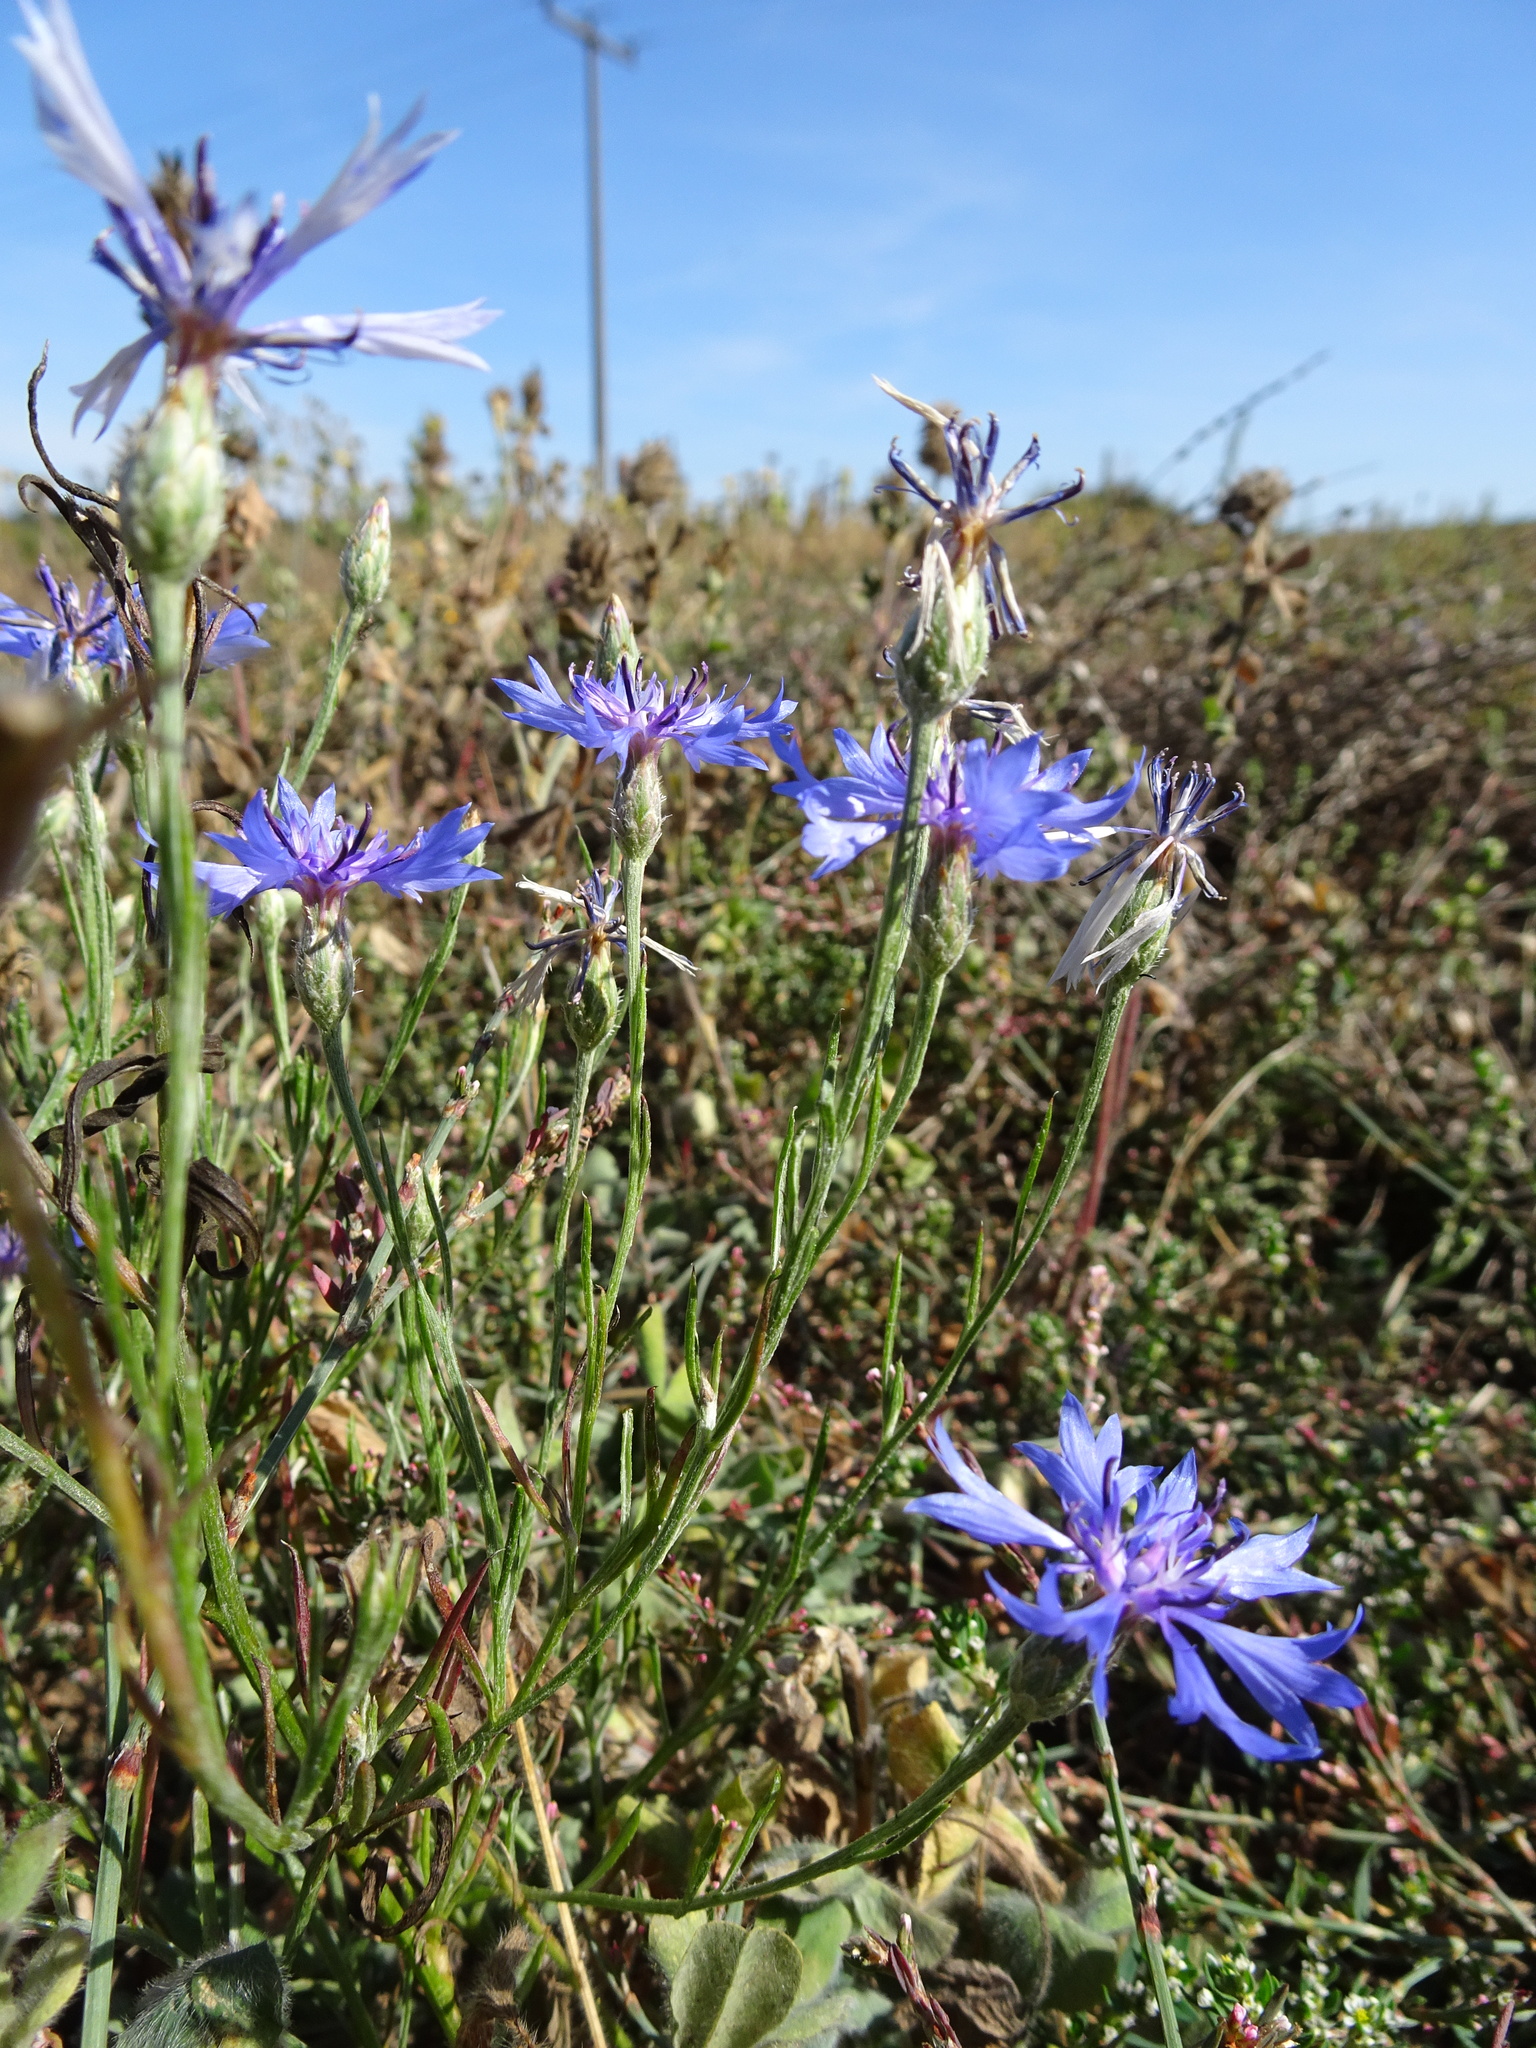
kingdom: Plantae
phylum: Tracheophyta
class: Magnoliopsida
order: Asterales
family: Asteraceae
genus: Centaurea
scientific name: Centaurea cyanus
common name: Cornflower
